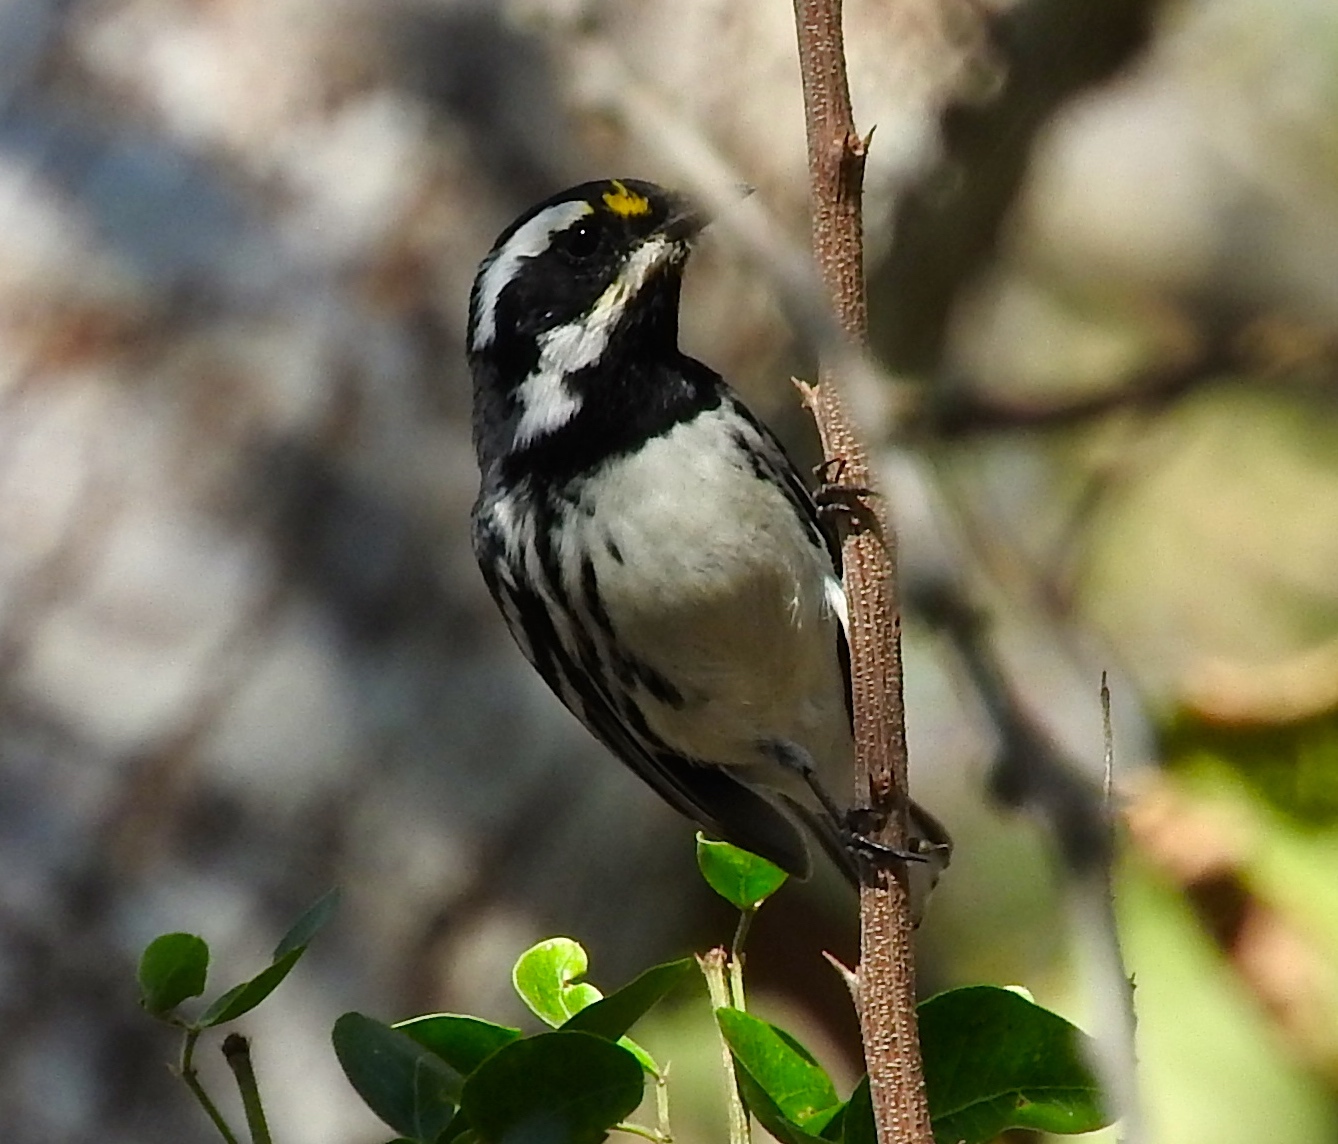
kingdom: Animalia
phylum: Chordata
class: Aves
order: Passeriformes
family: Parulidae
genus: Setophaga
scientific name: Setophaga nigrescens
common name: Black-throated gray warbler
